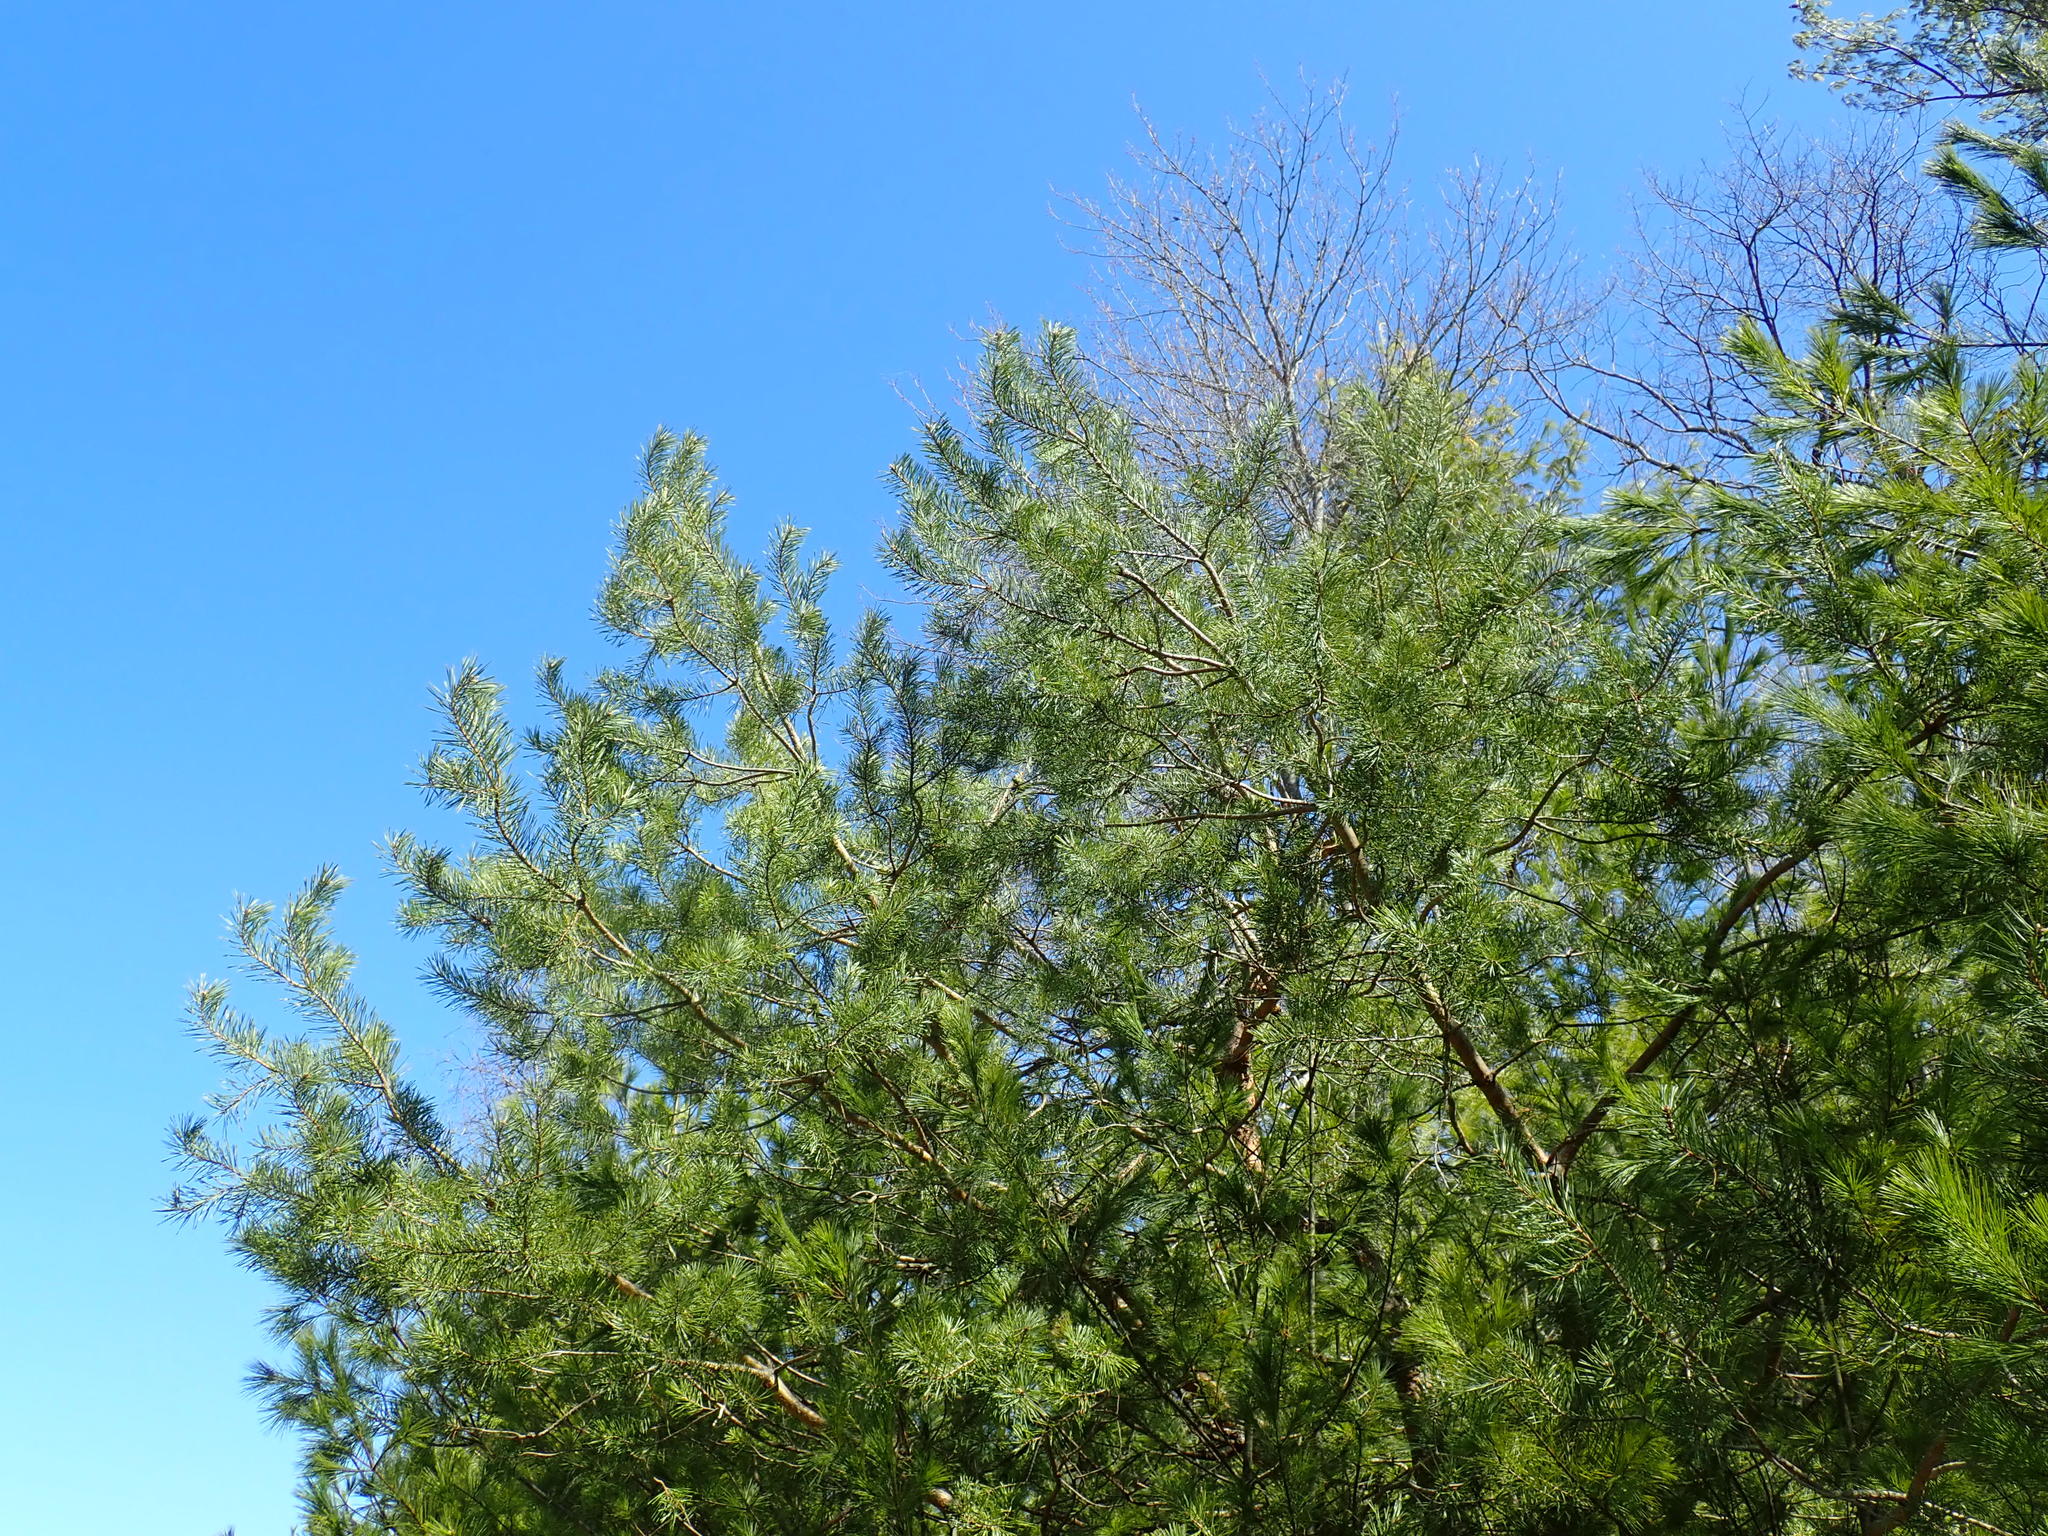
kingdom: Plantae
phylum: Tracheophyta
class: Pinopsida
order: Pinales
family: Pinaceae
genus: Pinus
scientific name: Pinus sylvestris
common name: Scots pine
